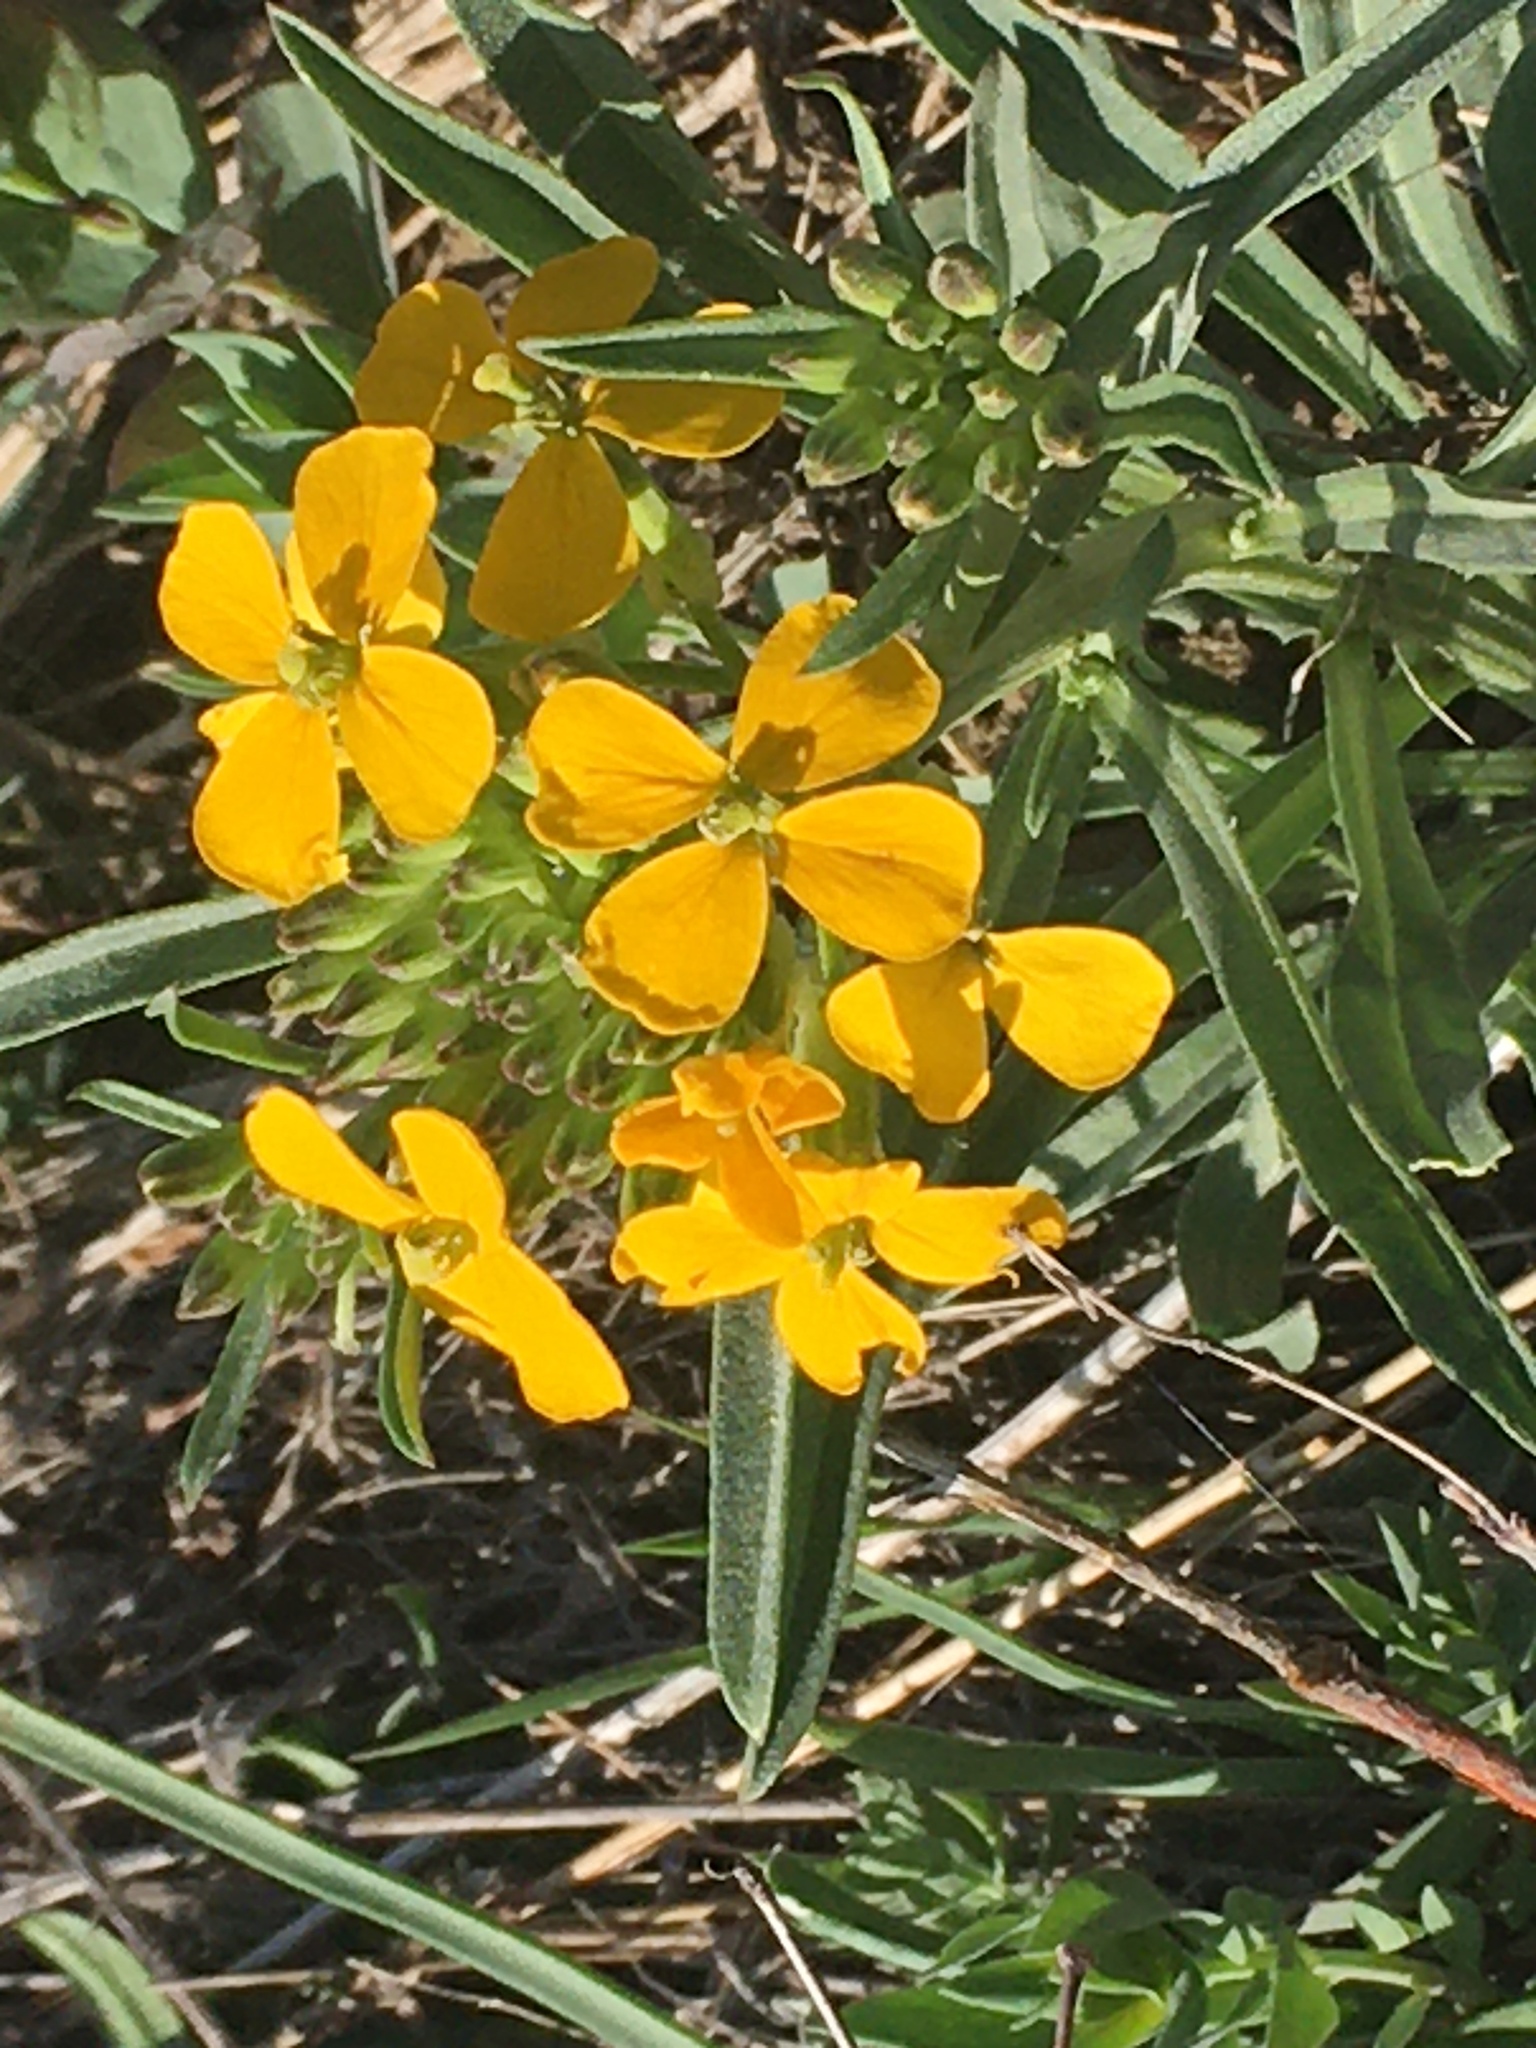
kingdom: Plantae
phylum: Tracheophyta
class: Magnoliopsida
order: Brassicales
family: Brassicaceae
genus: Erysimum
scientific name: Erysimum capitatum
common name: Western wallflower
